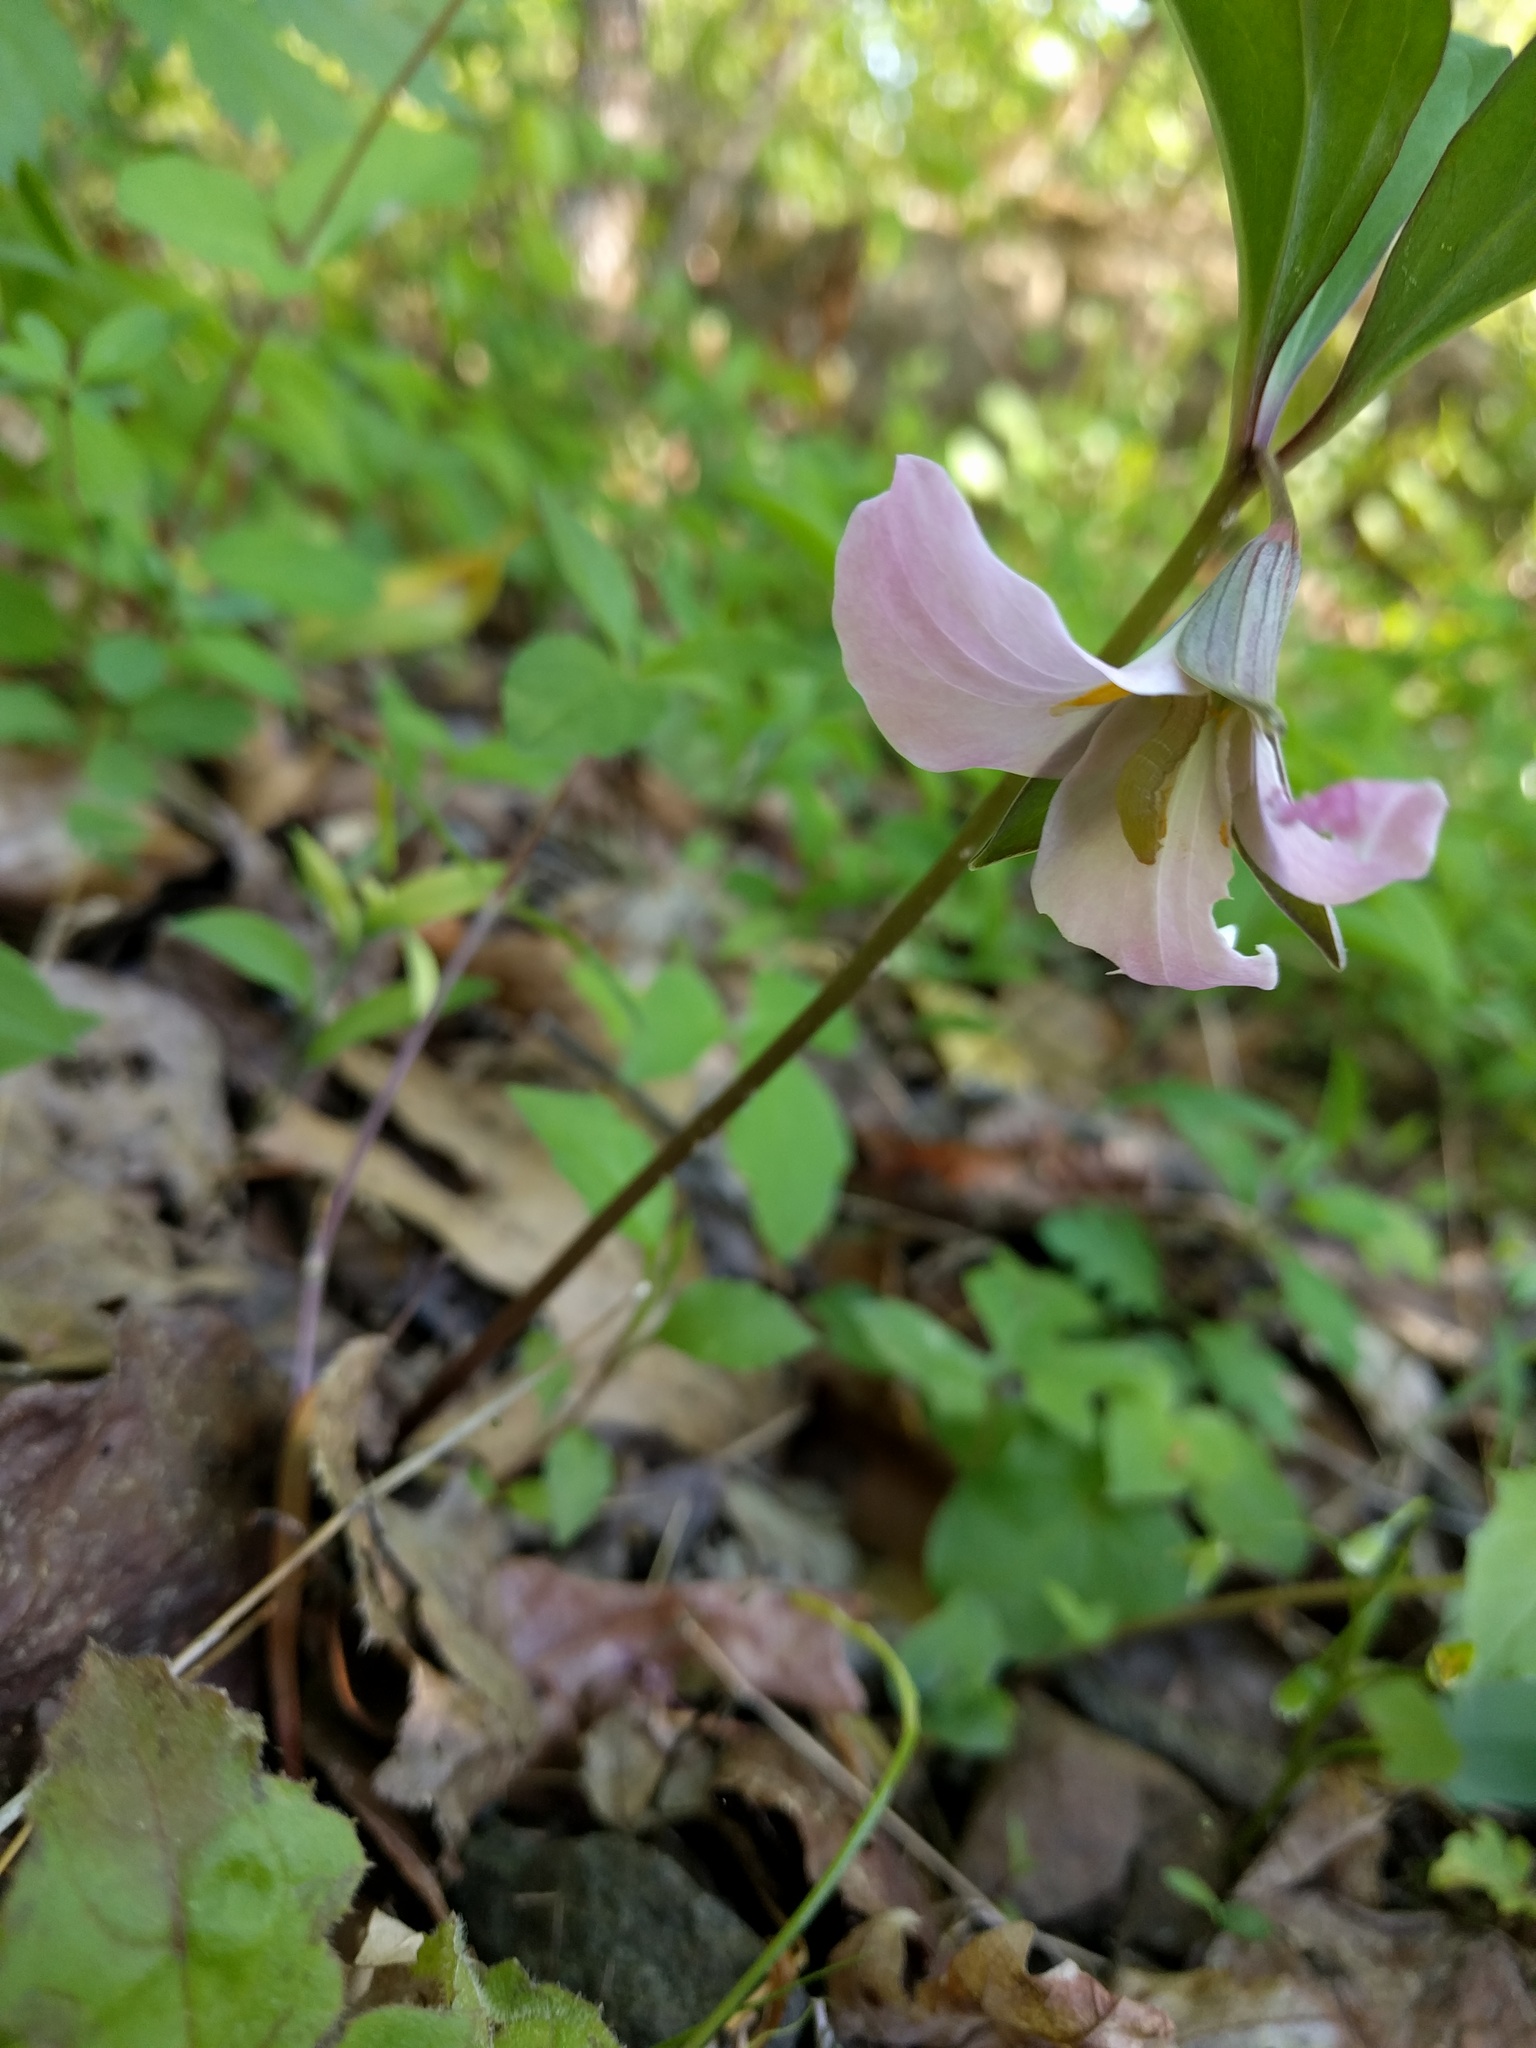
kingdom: Plantae
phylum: Tracheophyta
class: Liliopsida
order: Liliales
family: Melanthiaceae
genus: Trillium
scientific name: Trillium catesbaei
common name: Bashful trillium
